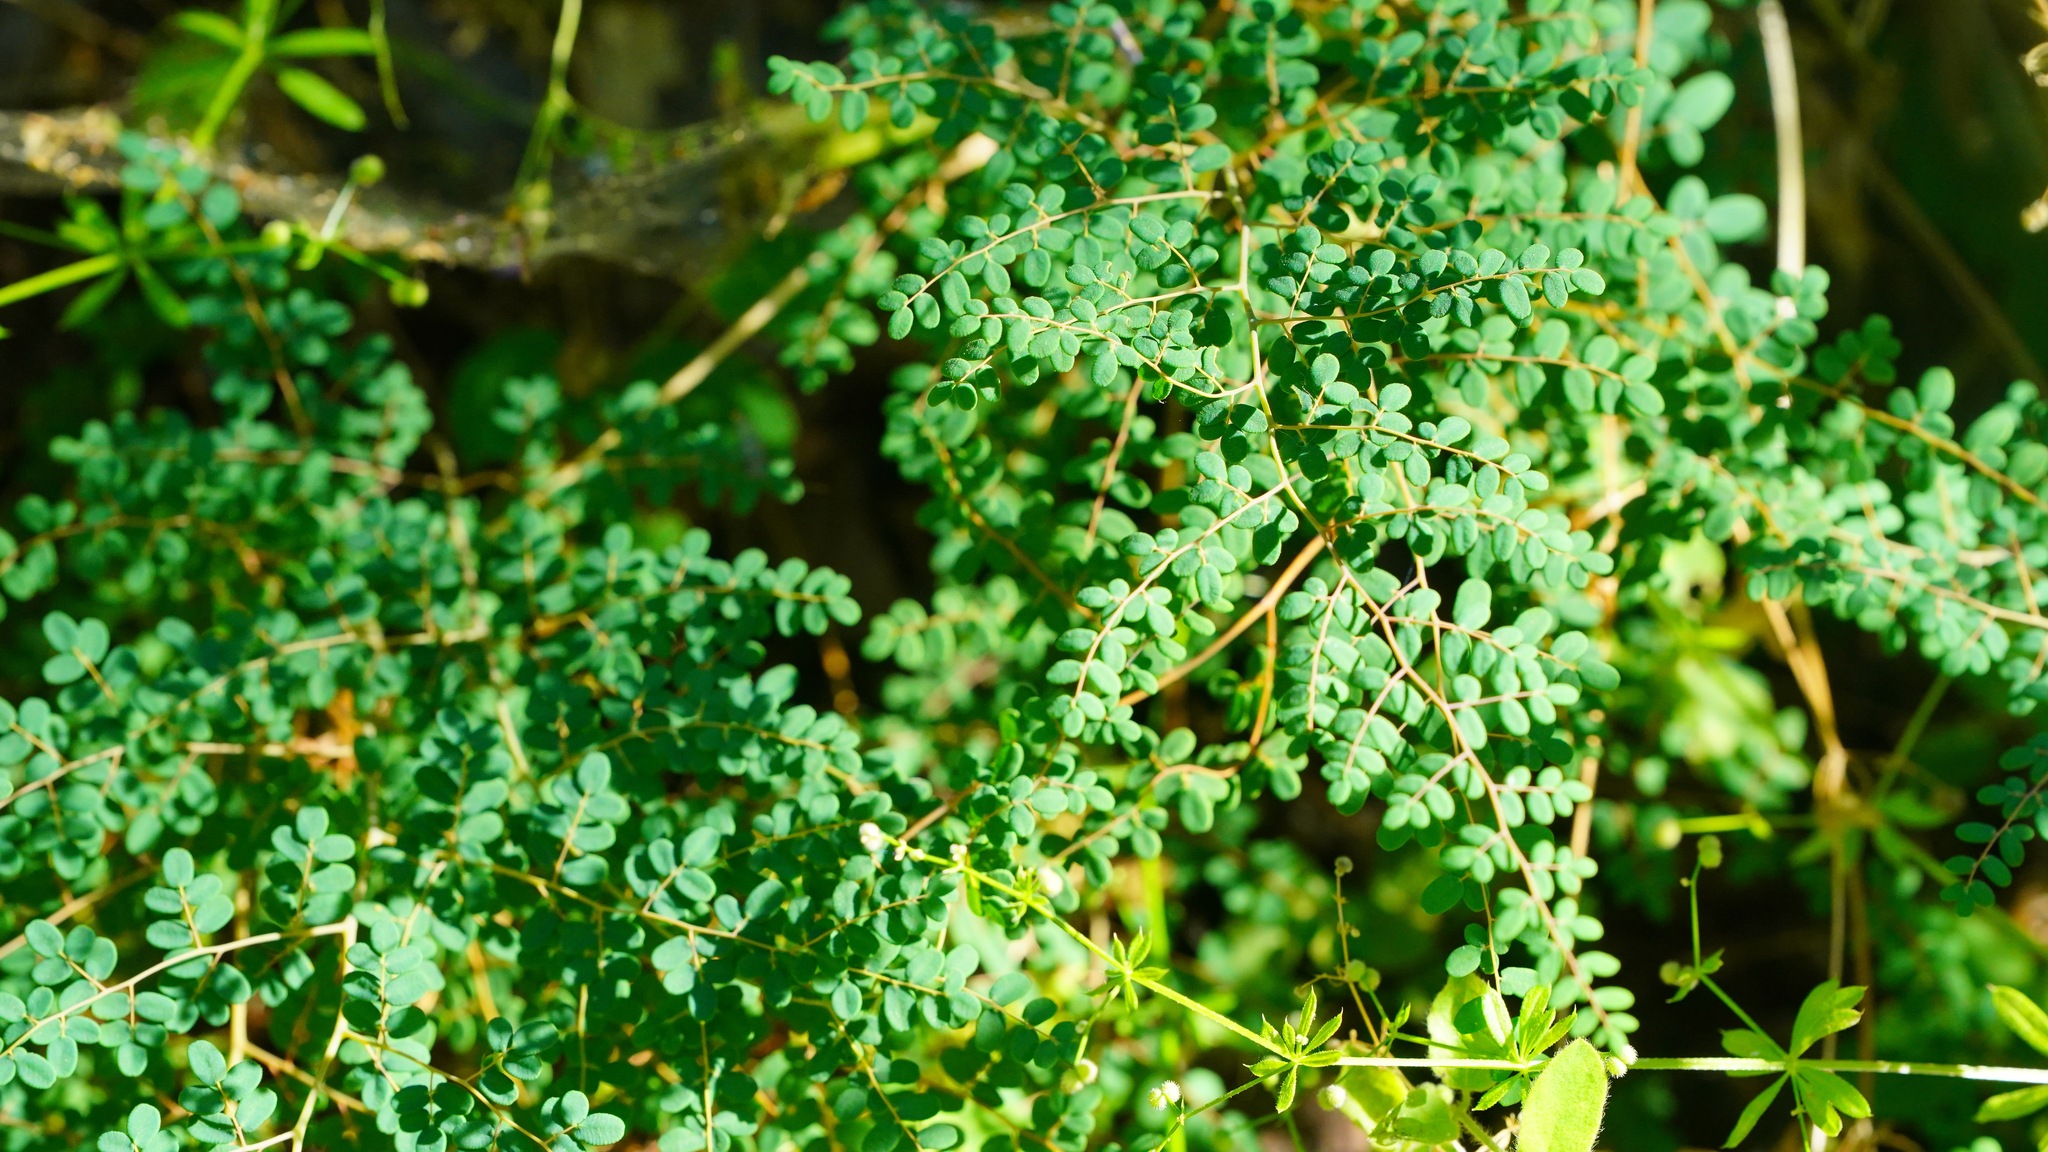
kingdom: Plantae
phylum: Tracheophyta
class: Polypodiopsida
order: Polypodiales
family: Pteridaceae
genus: Pellaea
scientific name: Pellaea andromedifolia
